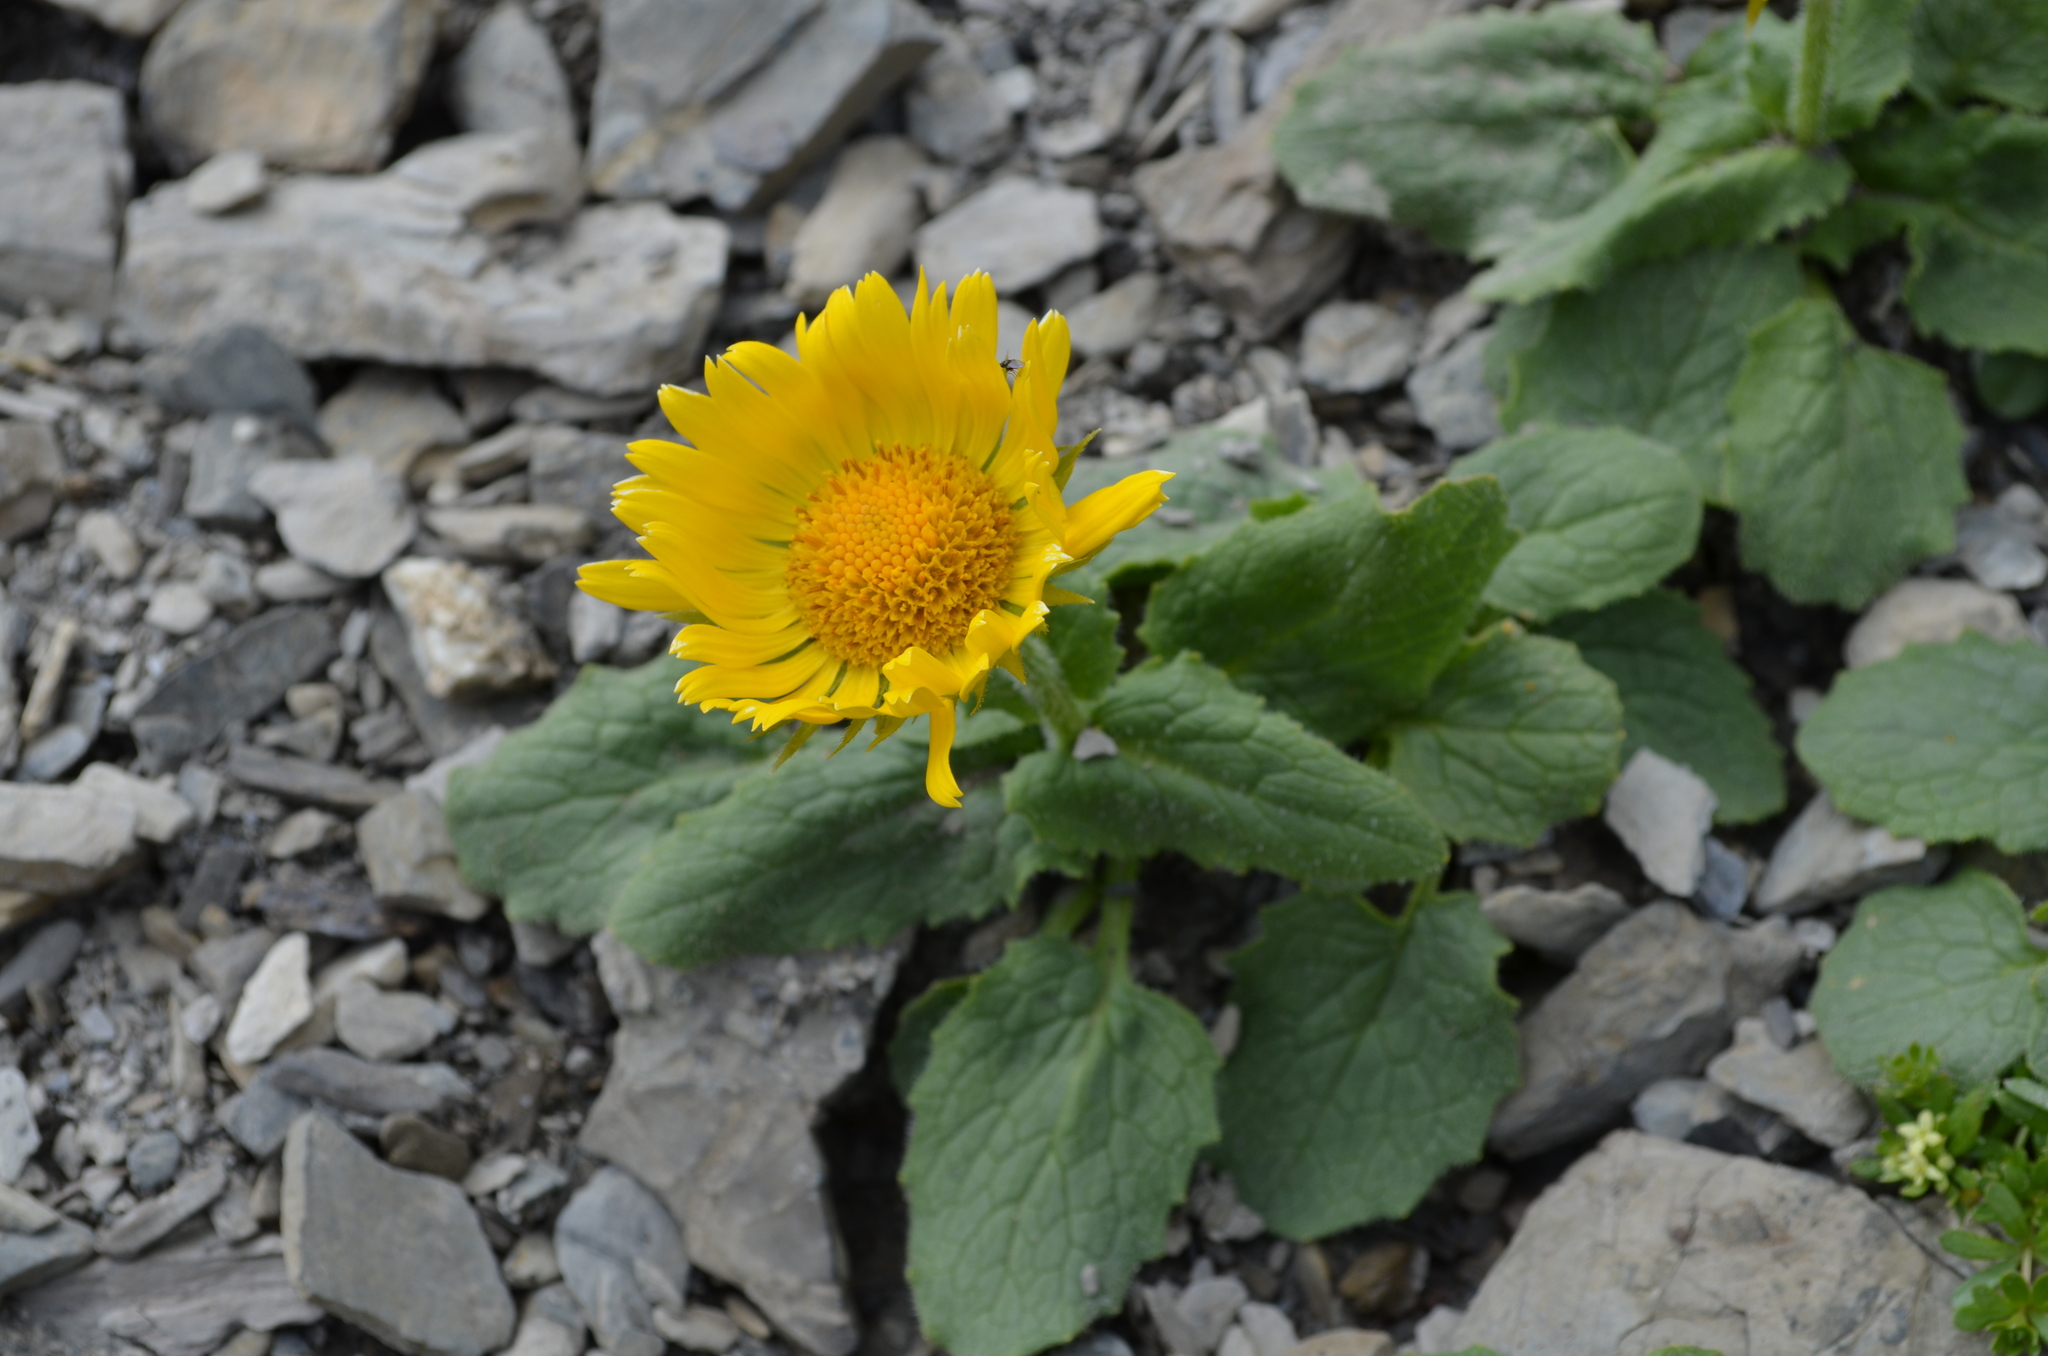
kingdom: Plantae
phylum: Tracheophyta
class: Magnoliopsida
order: Asterales
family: Asteraceae
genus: Doronicum
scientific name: Doronicum grandiflorum
